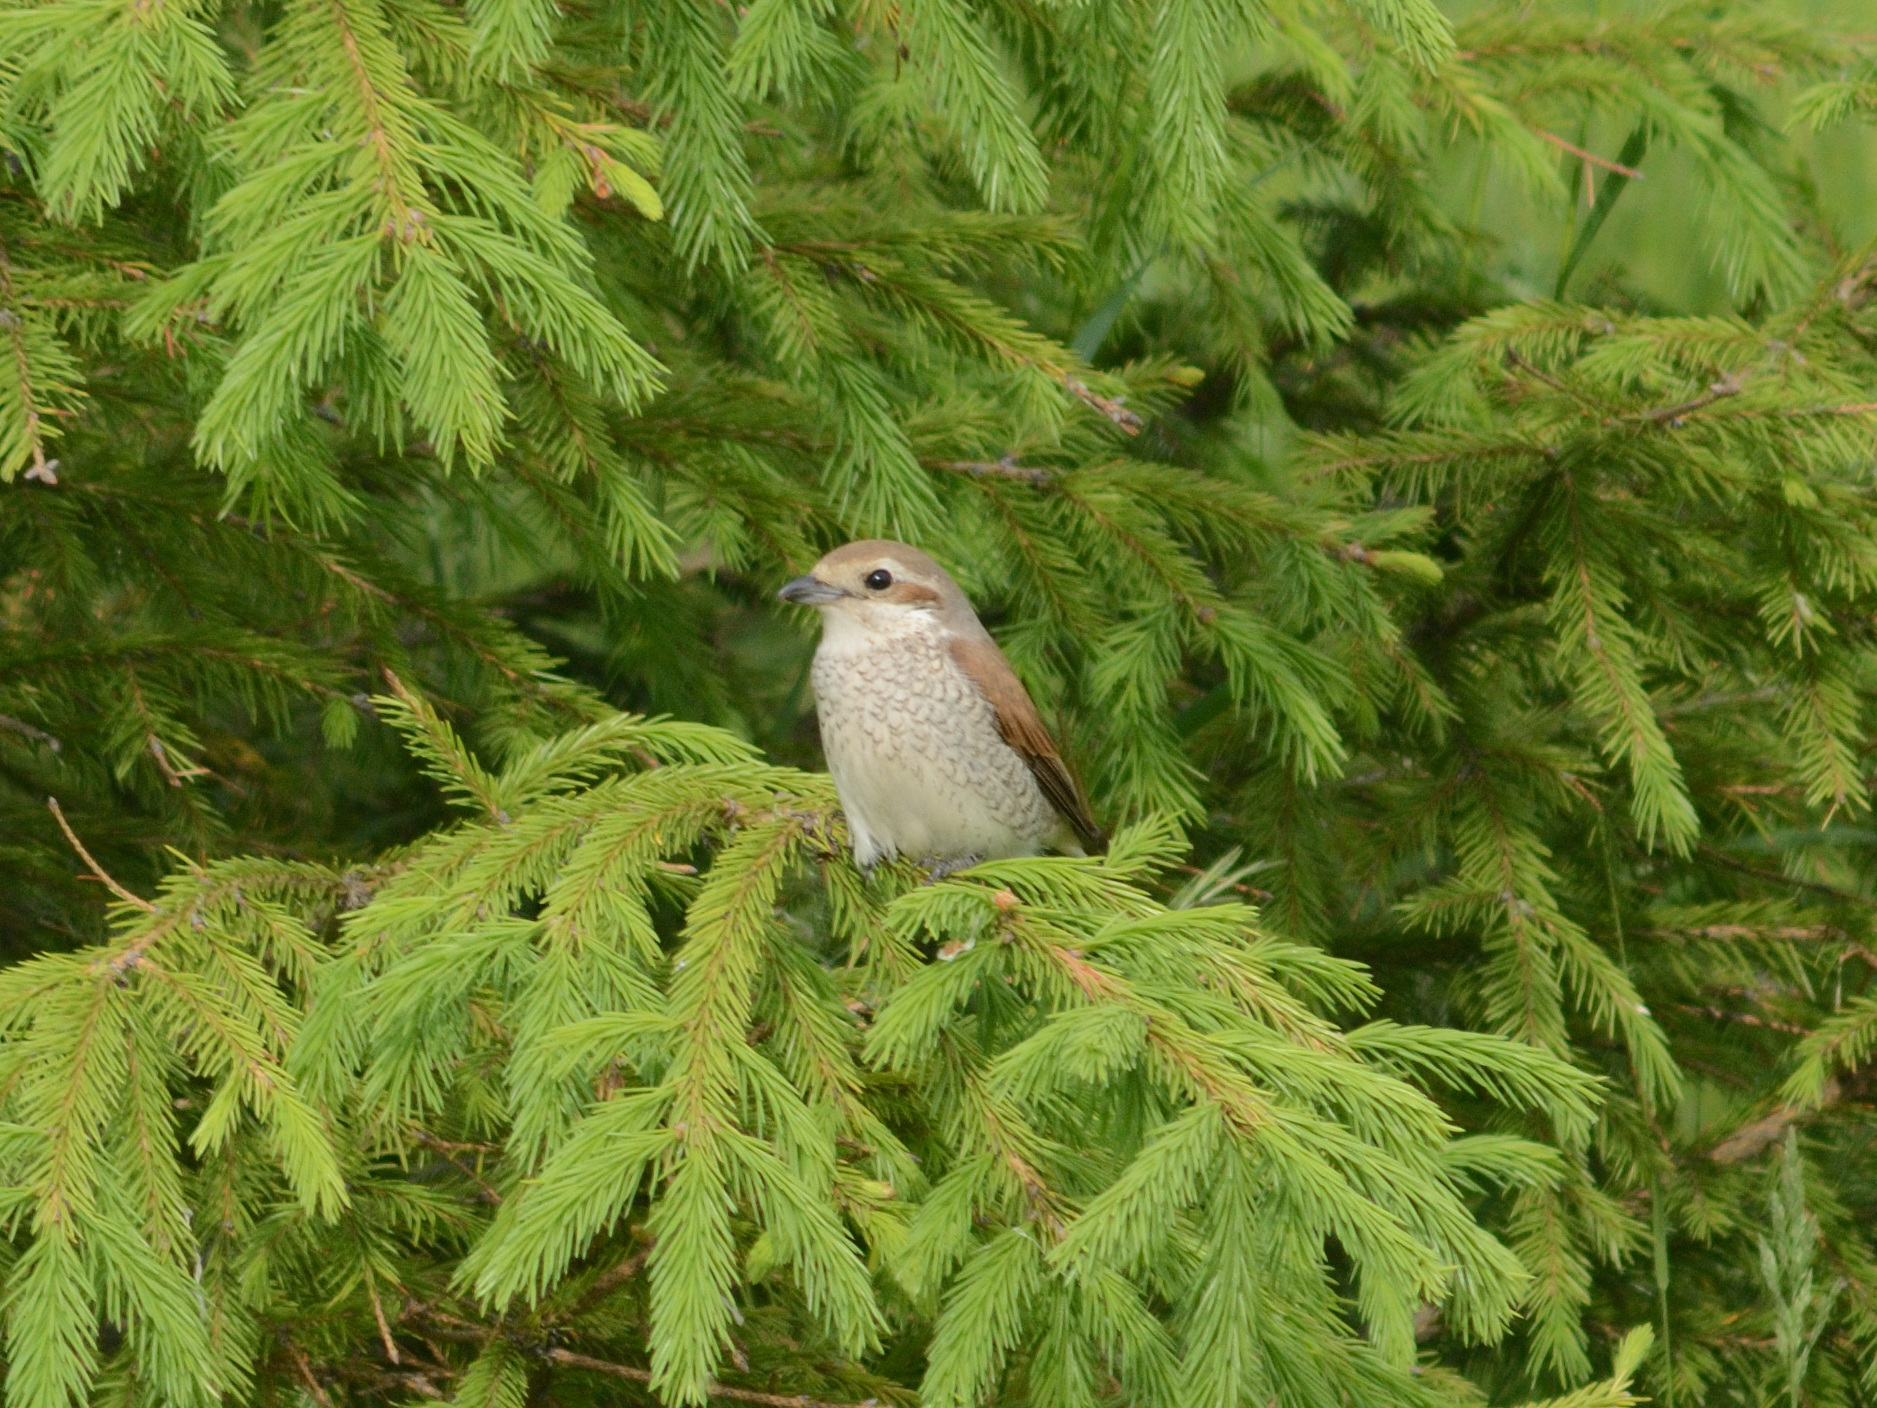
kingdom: Animalia
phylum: Chordata
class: Aves
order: Passeriformes
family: Laniidae
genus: Lanius
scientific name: Lanius collurio
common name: Red-backed shrike
